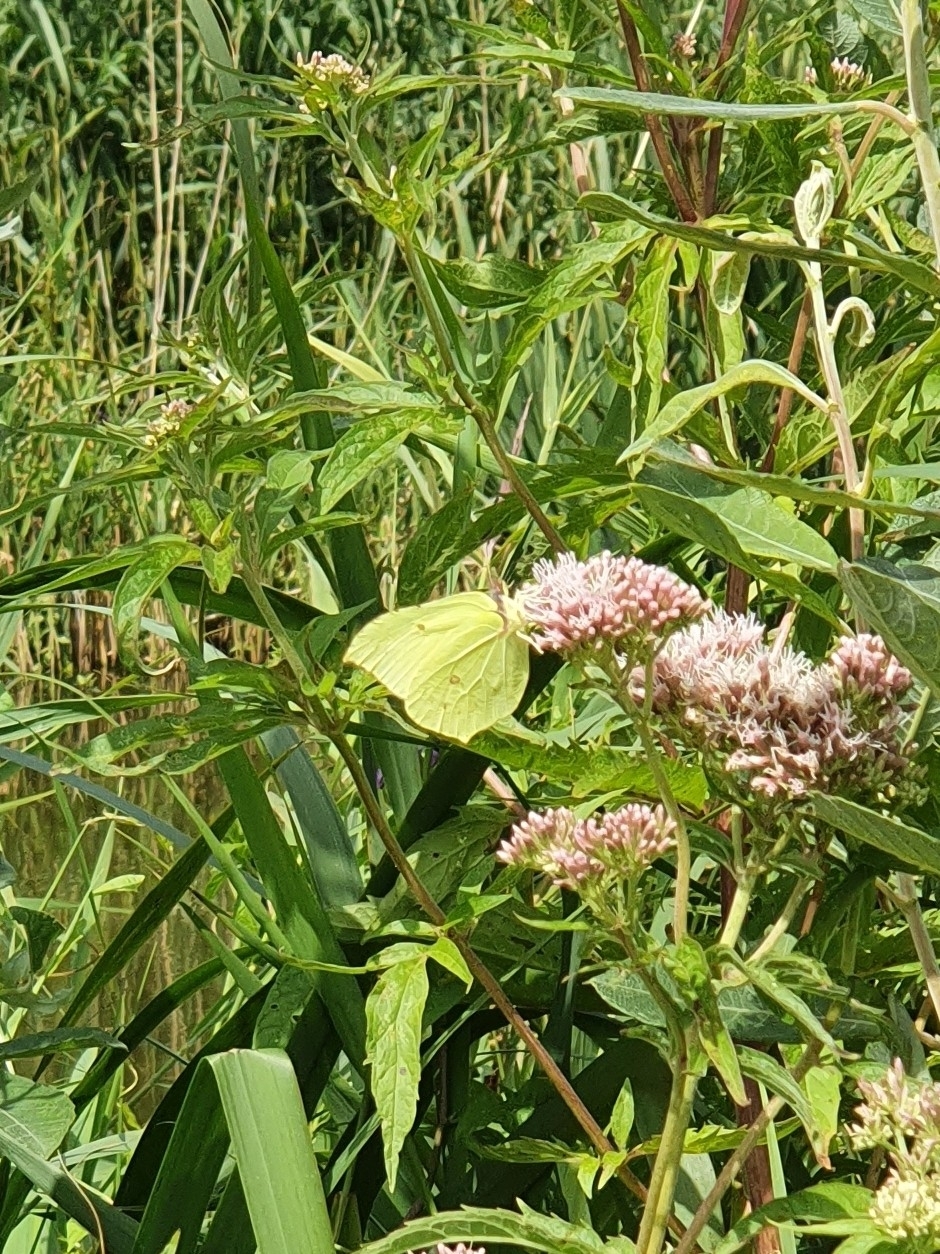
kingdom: Animalia
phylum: Arthropoda
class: Insecta
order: Lepidoptera
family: Pieridae
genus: Gonepteryx
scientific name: Gonepteryx rhamni
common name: Brimstone
